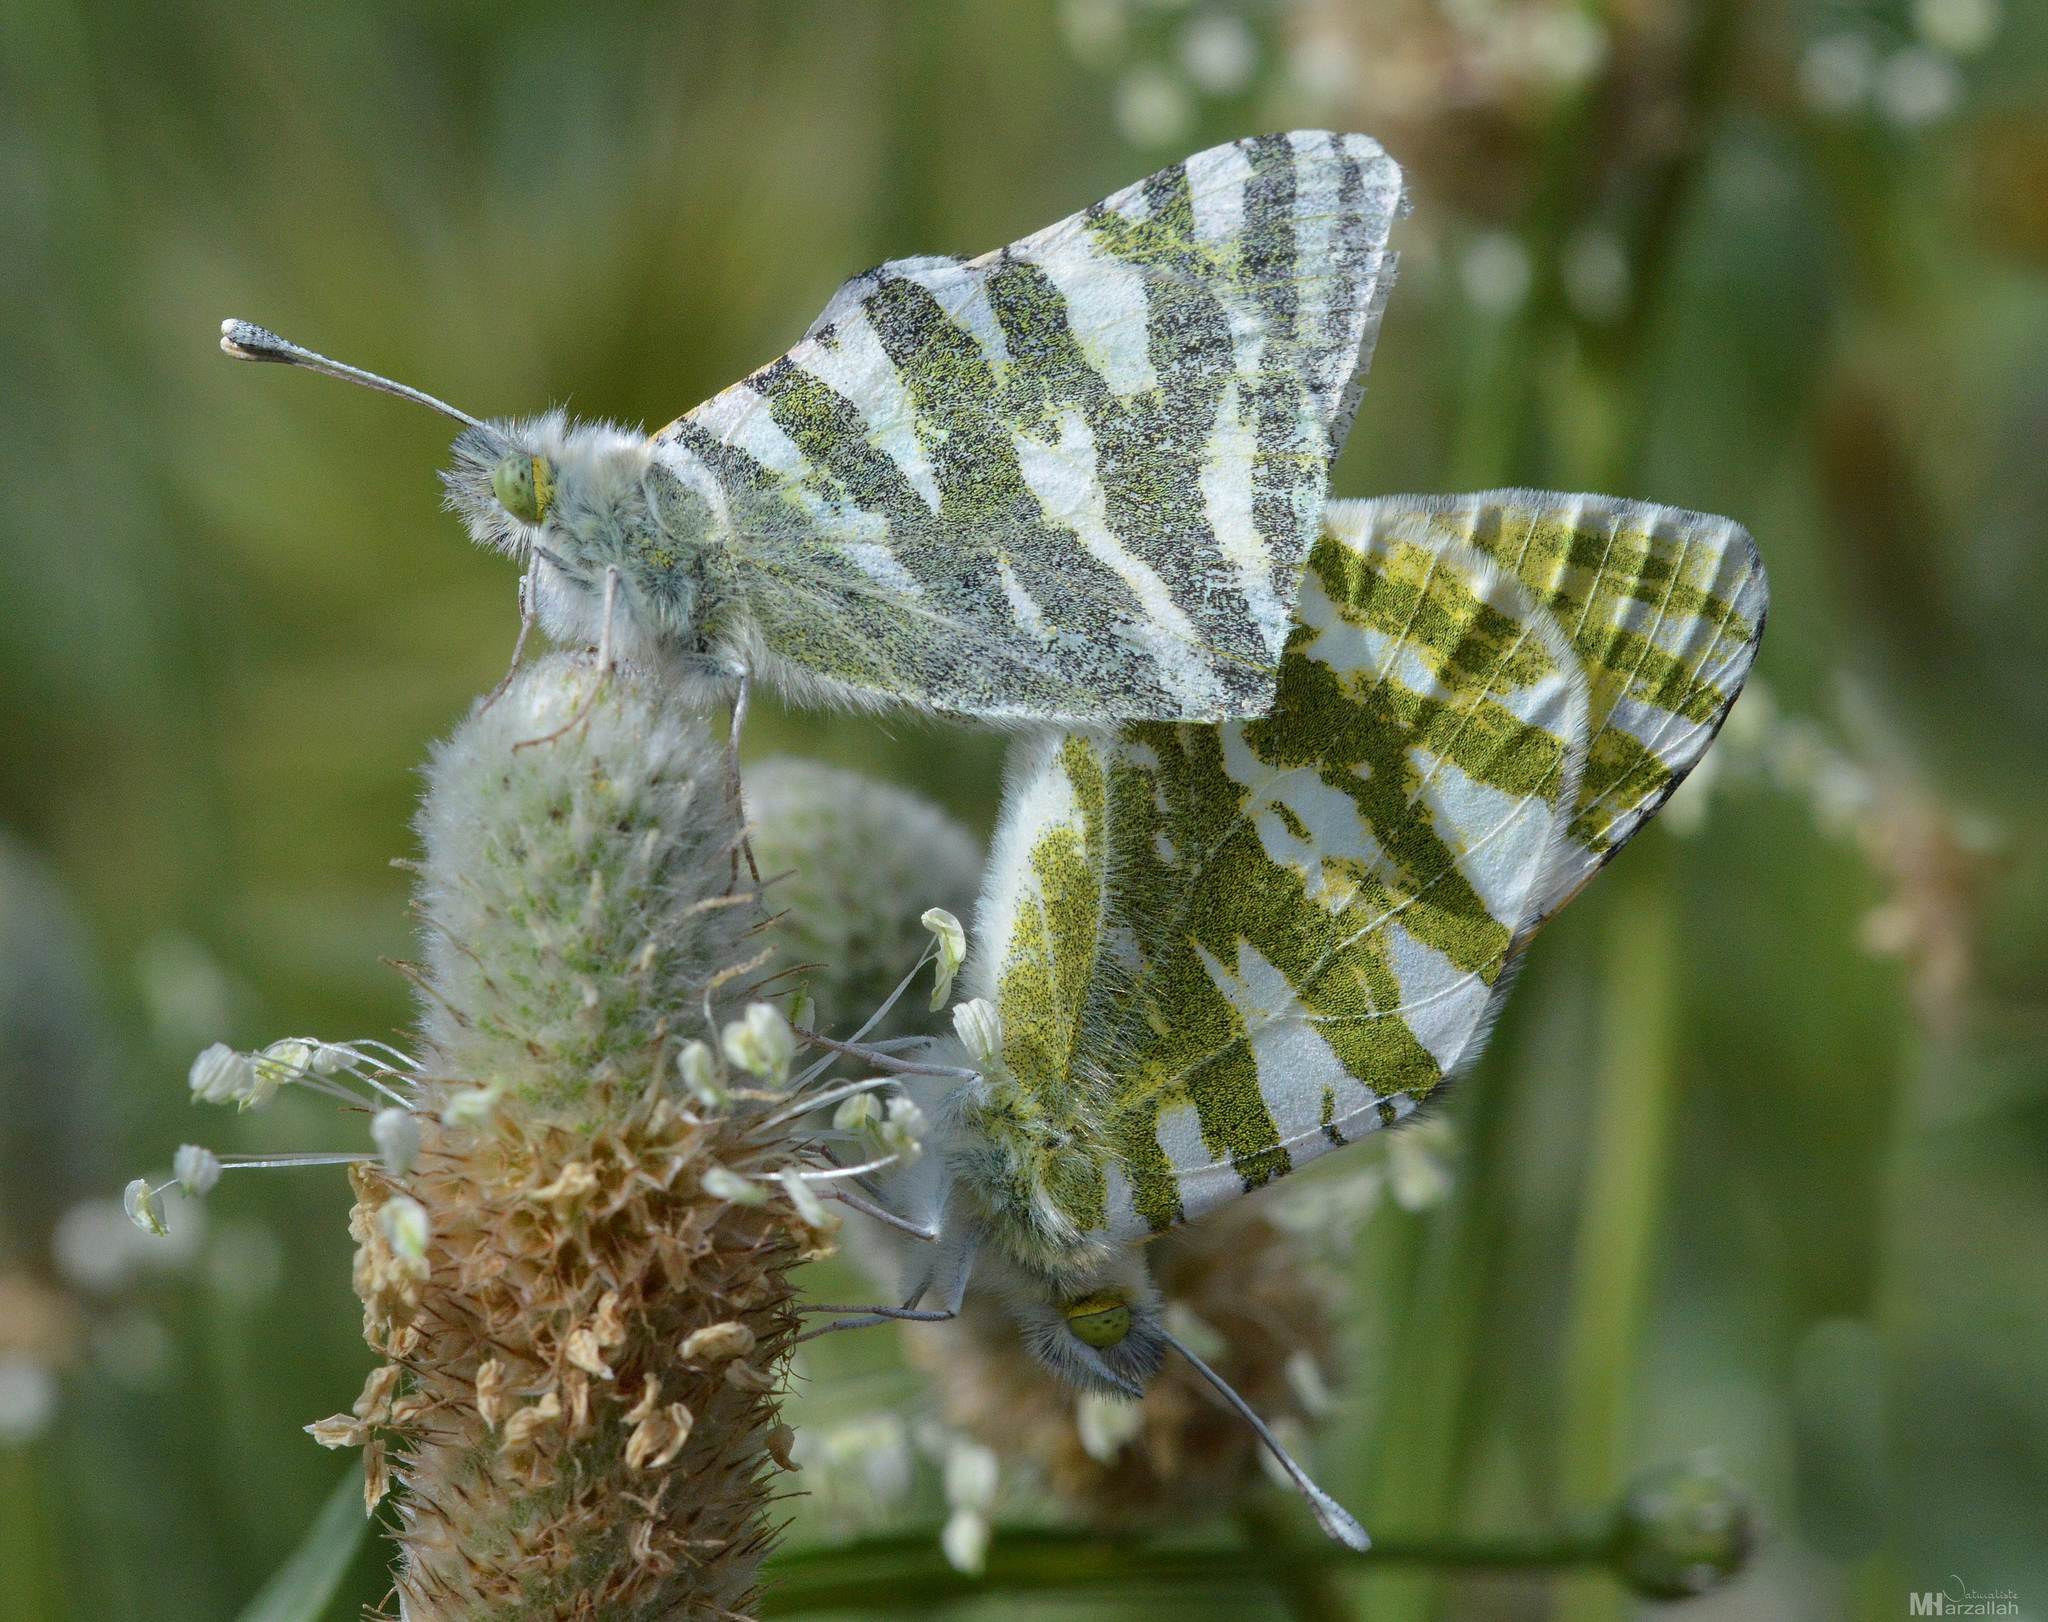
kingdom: Animalia
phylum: Arthropoda
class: Insecta
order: Lepidoptera
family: Pieridae
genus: Euchloe
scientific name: Euchloe belemia
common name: Green-striped white
